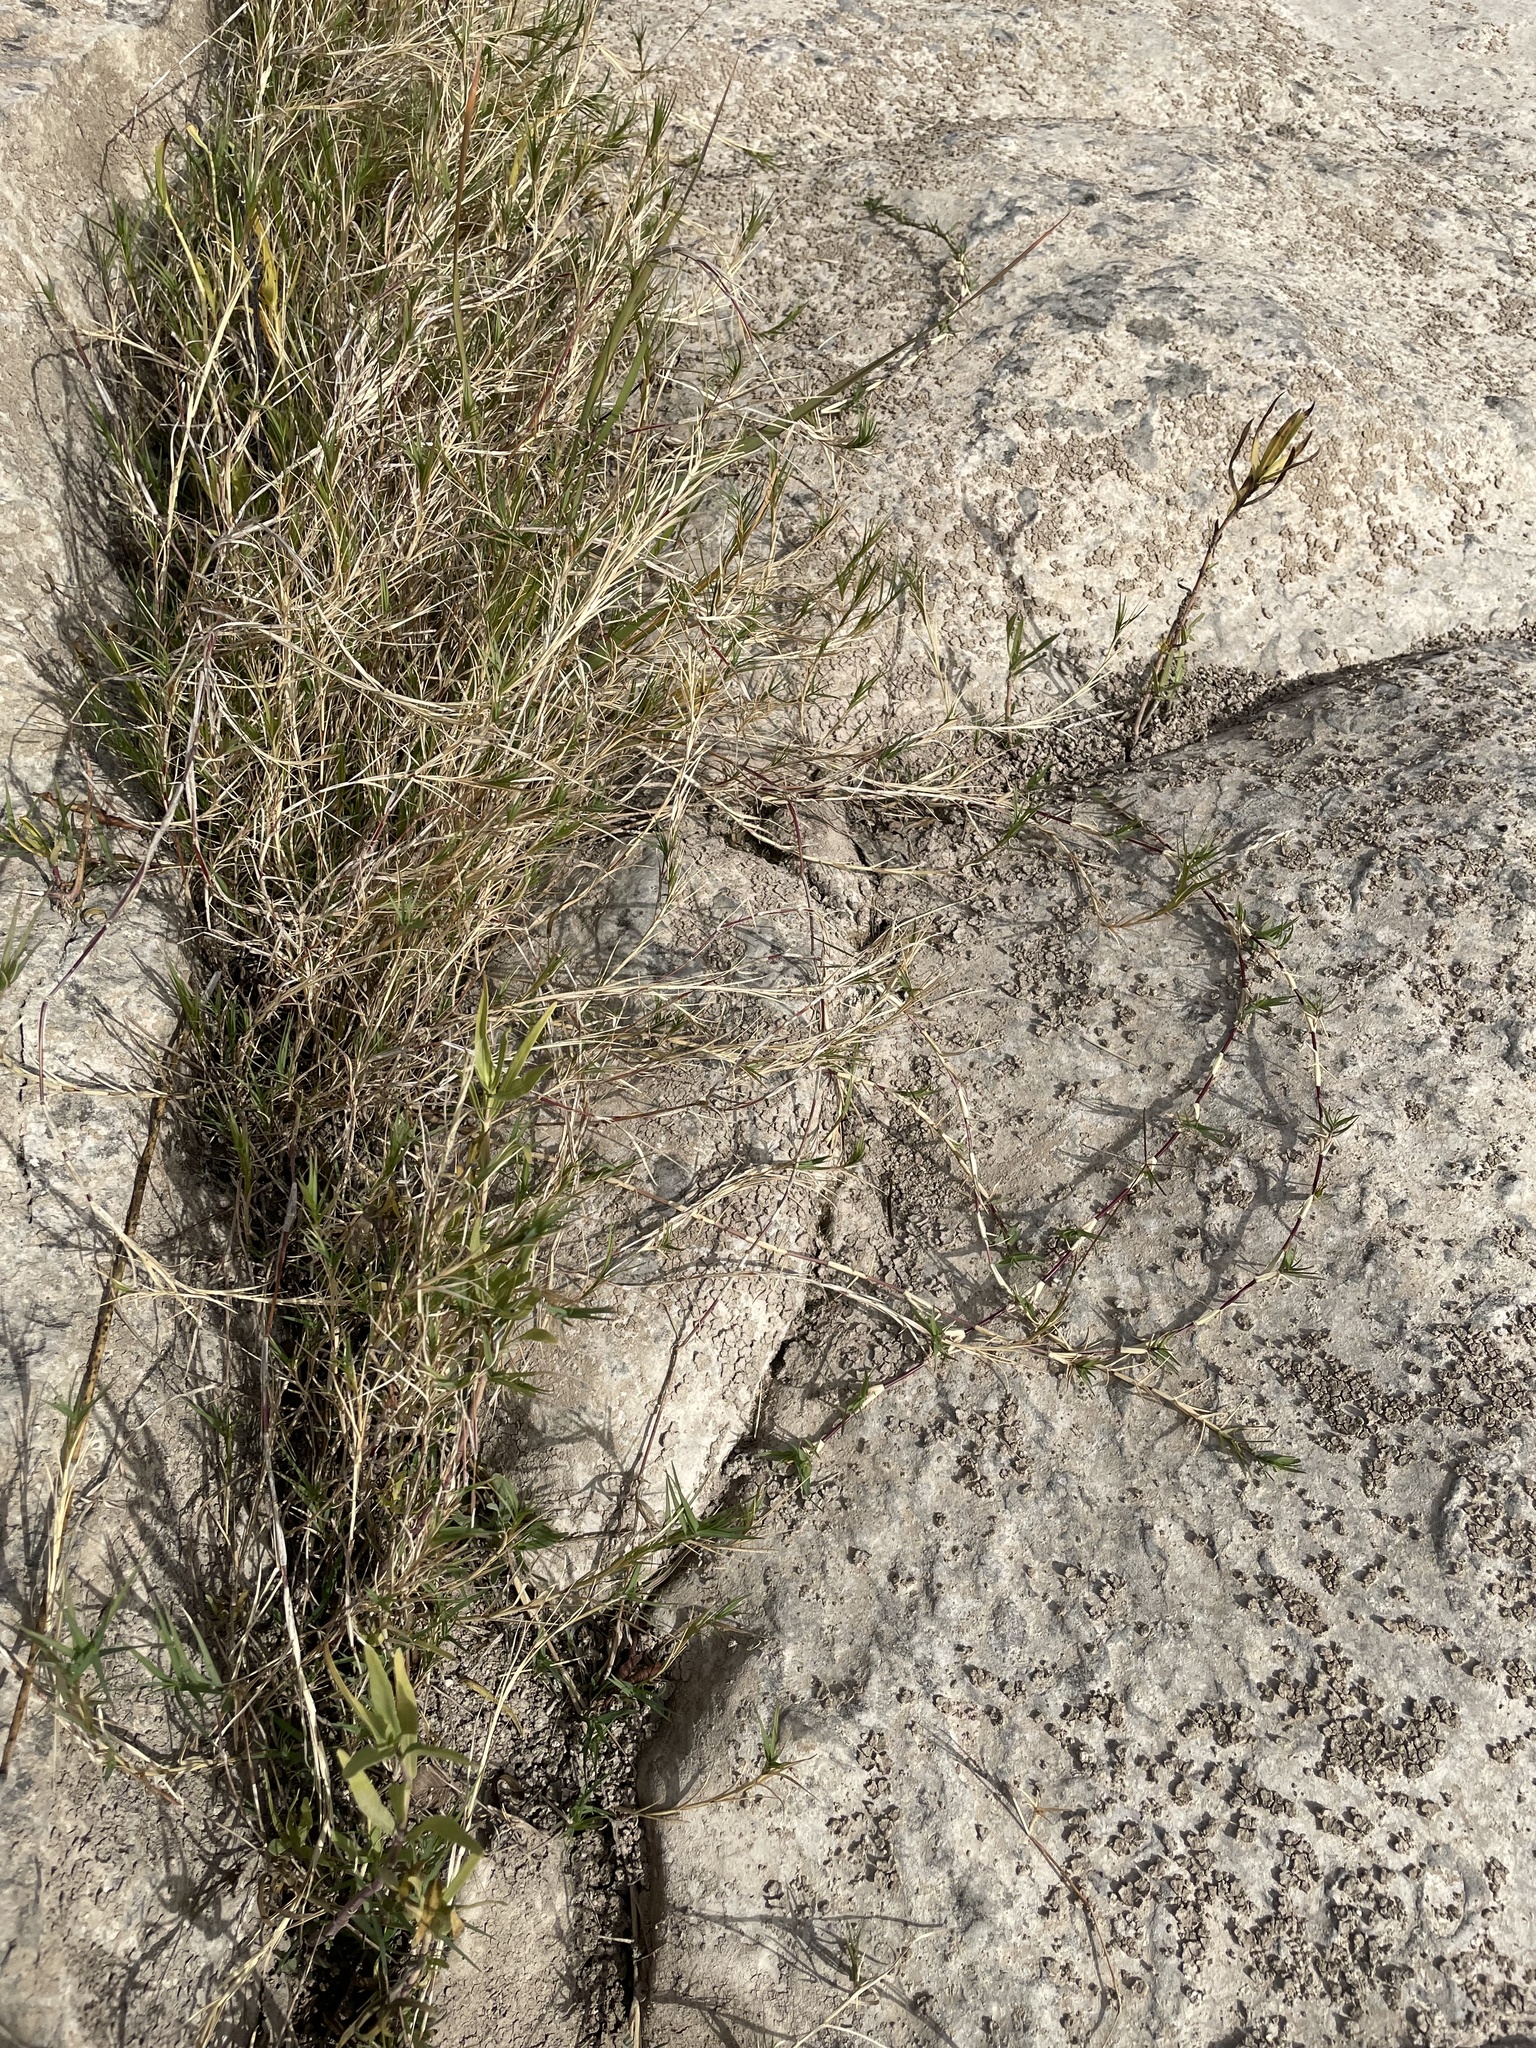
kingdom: Plantae
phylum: Tracheophyta
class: Liliopsida
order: Poales
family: Poaceae
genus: Cynodon
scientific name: Cynodon dactylon
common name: Bermuda grass
